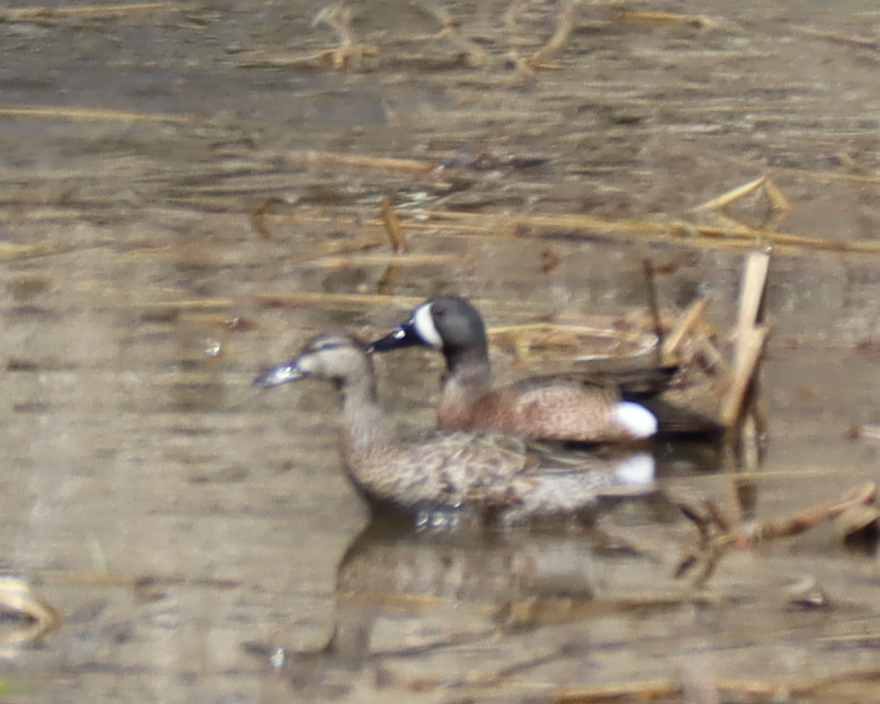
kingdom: Animalia
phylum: Chordata
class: Aves
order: Anseriformes
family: Anatidae
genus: Spatula
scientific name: Spatula discors
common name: Blue-winged teal
